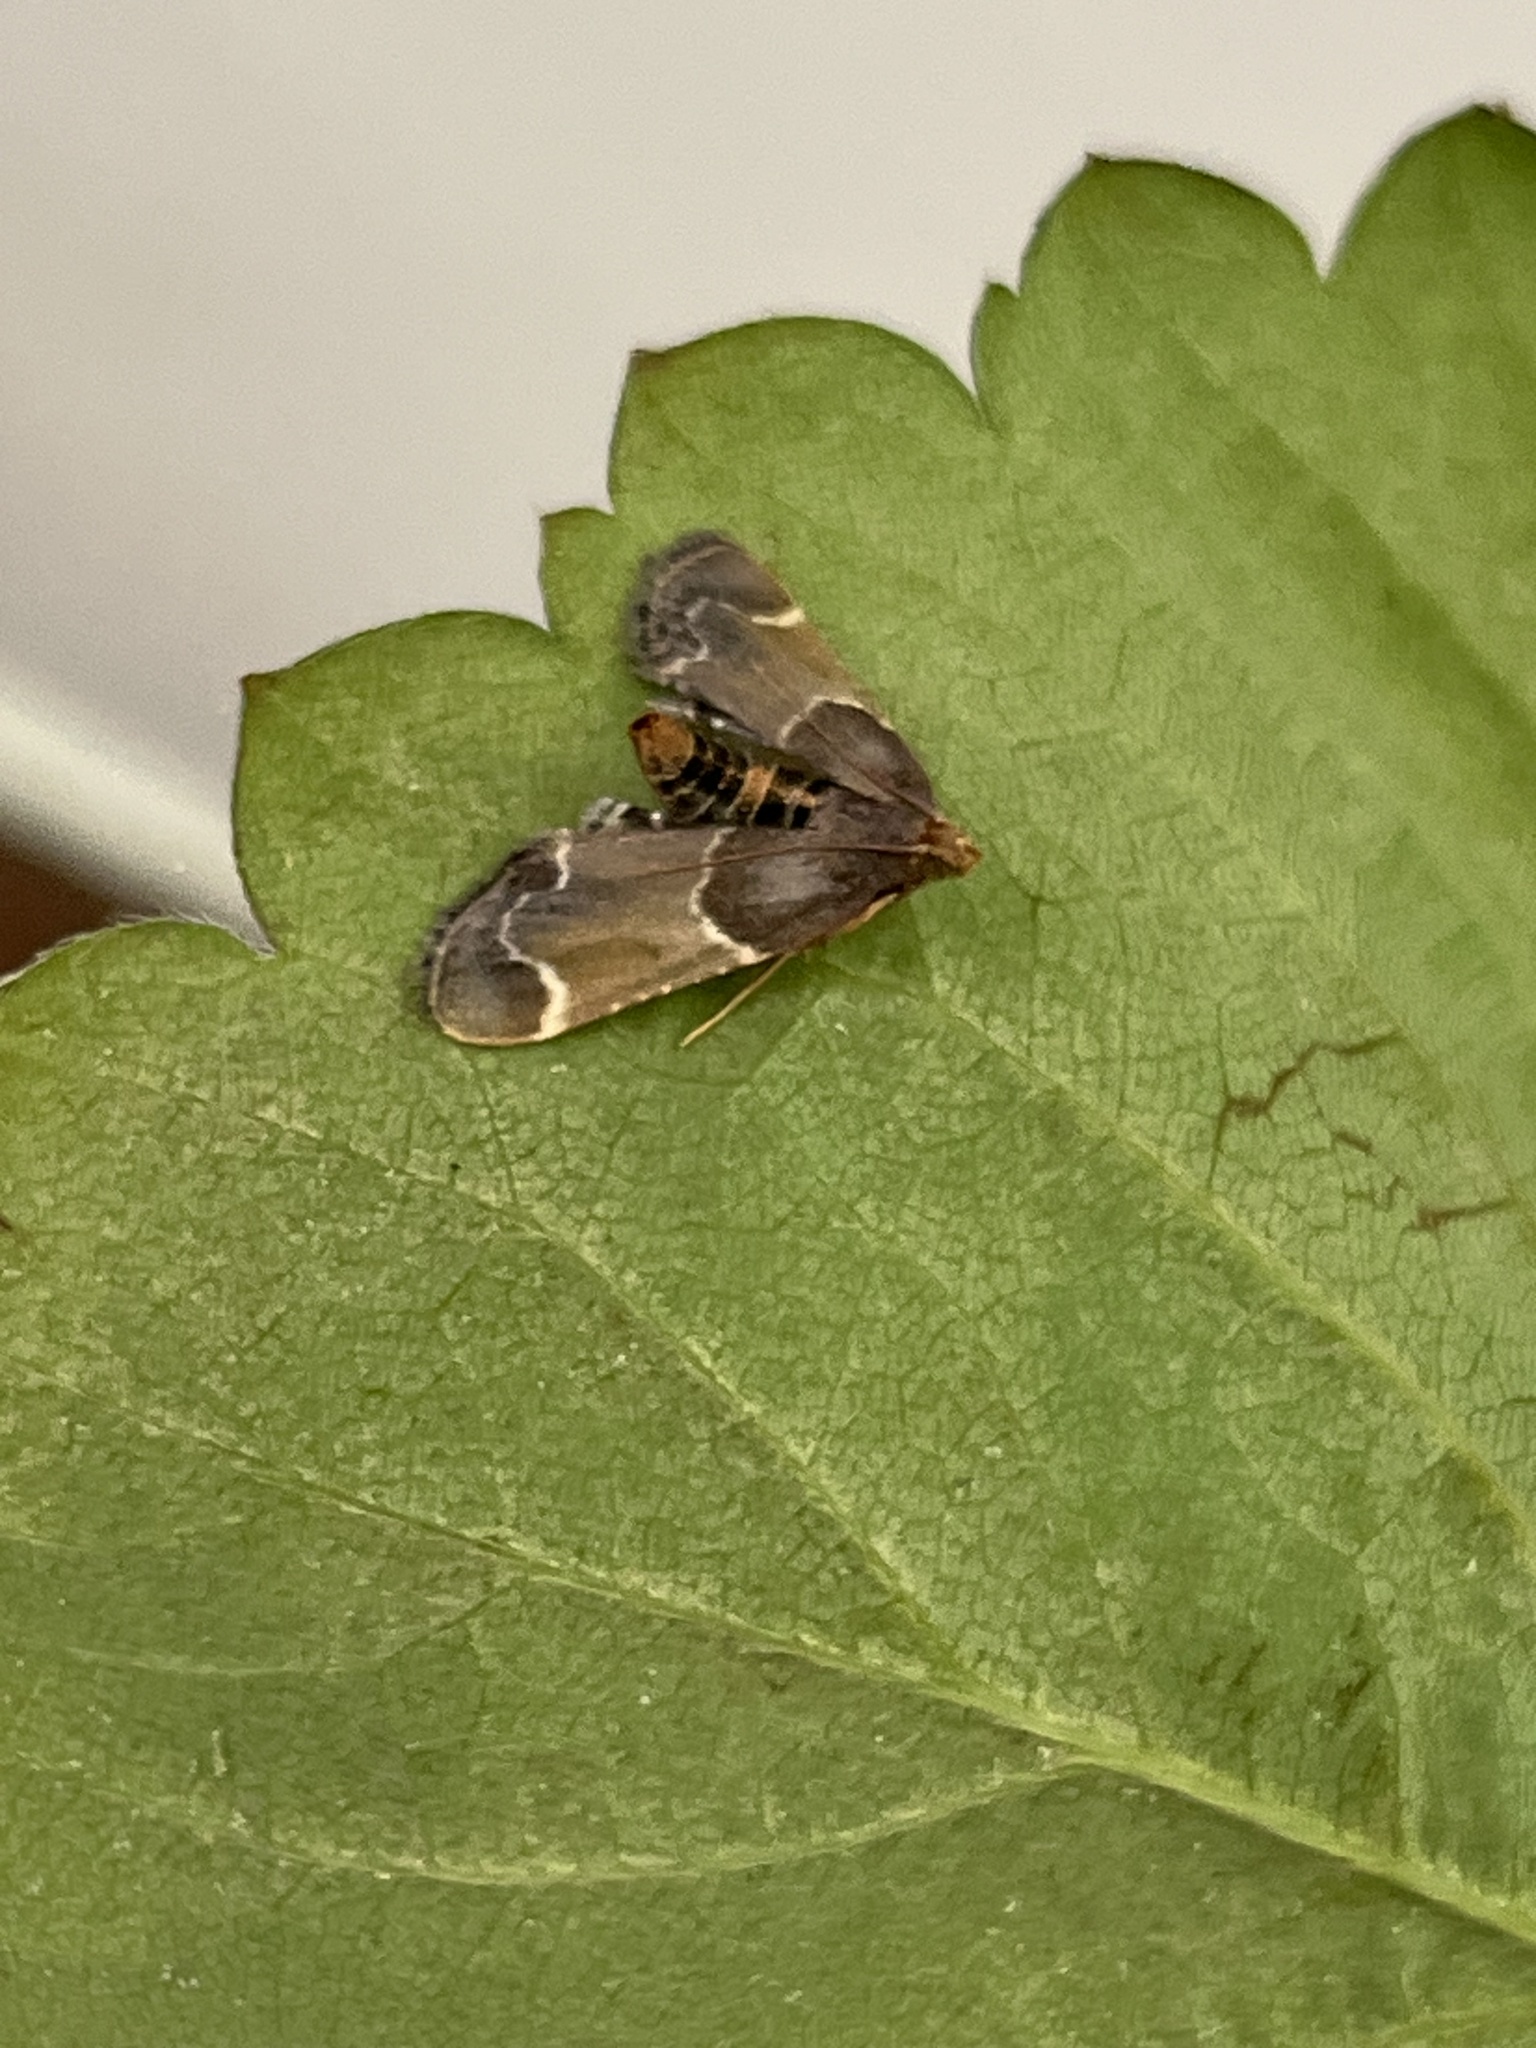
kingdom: Animalia
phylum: Arthropoda
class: Insecta
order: Lepidoptera
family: Pyralidae
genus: Pyralis
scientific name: Pyralis farinalis
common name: Meal moth
